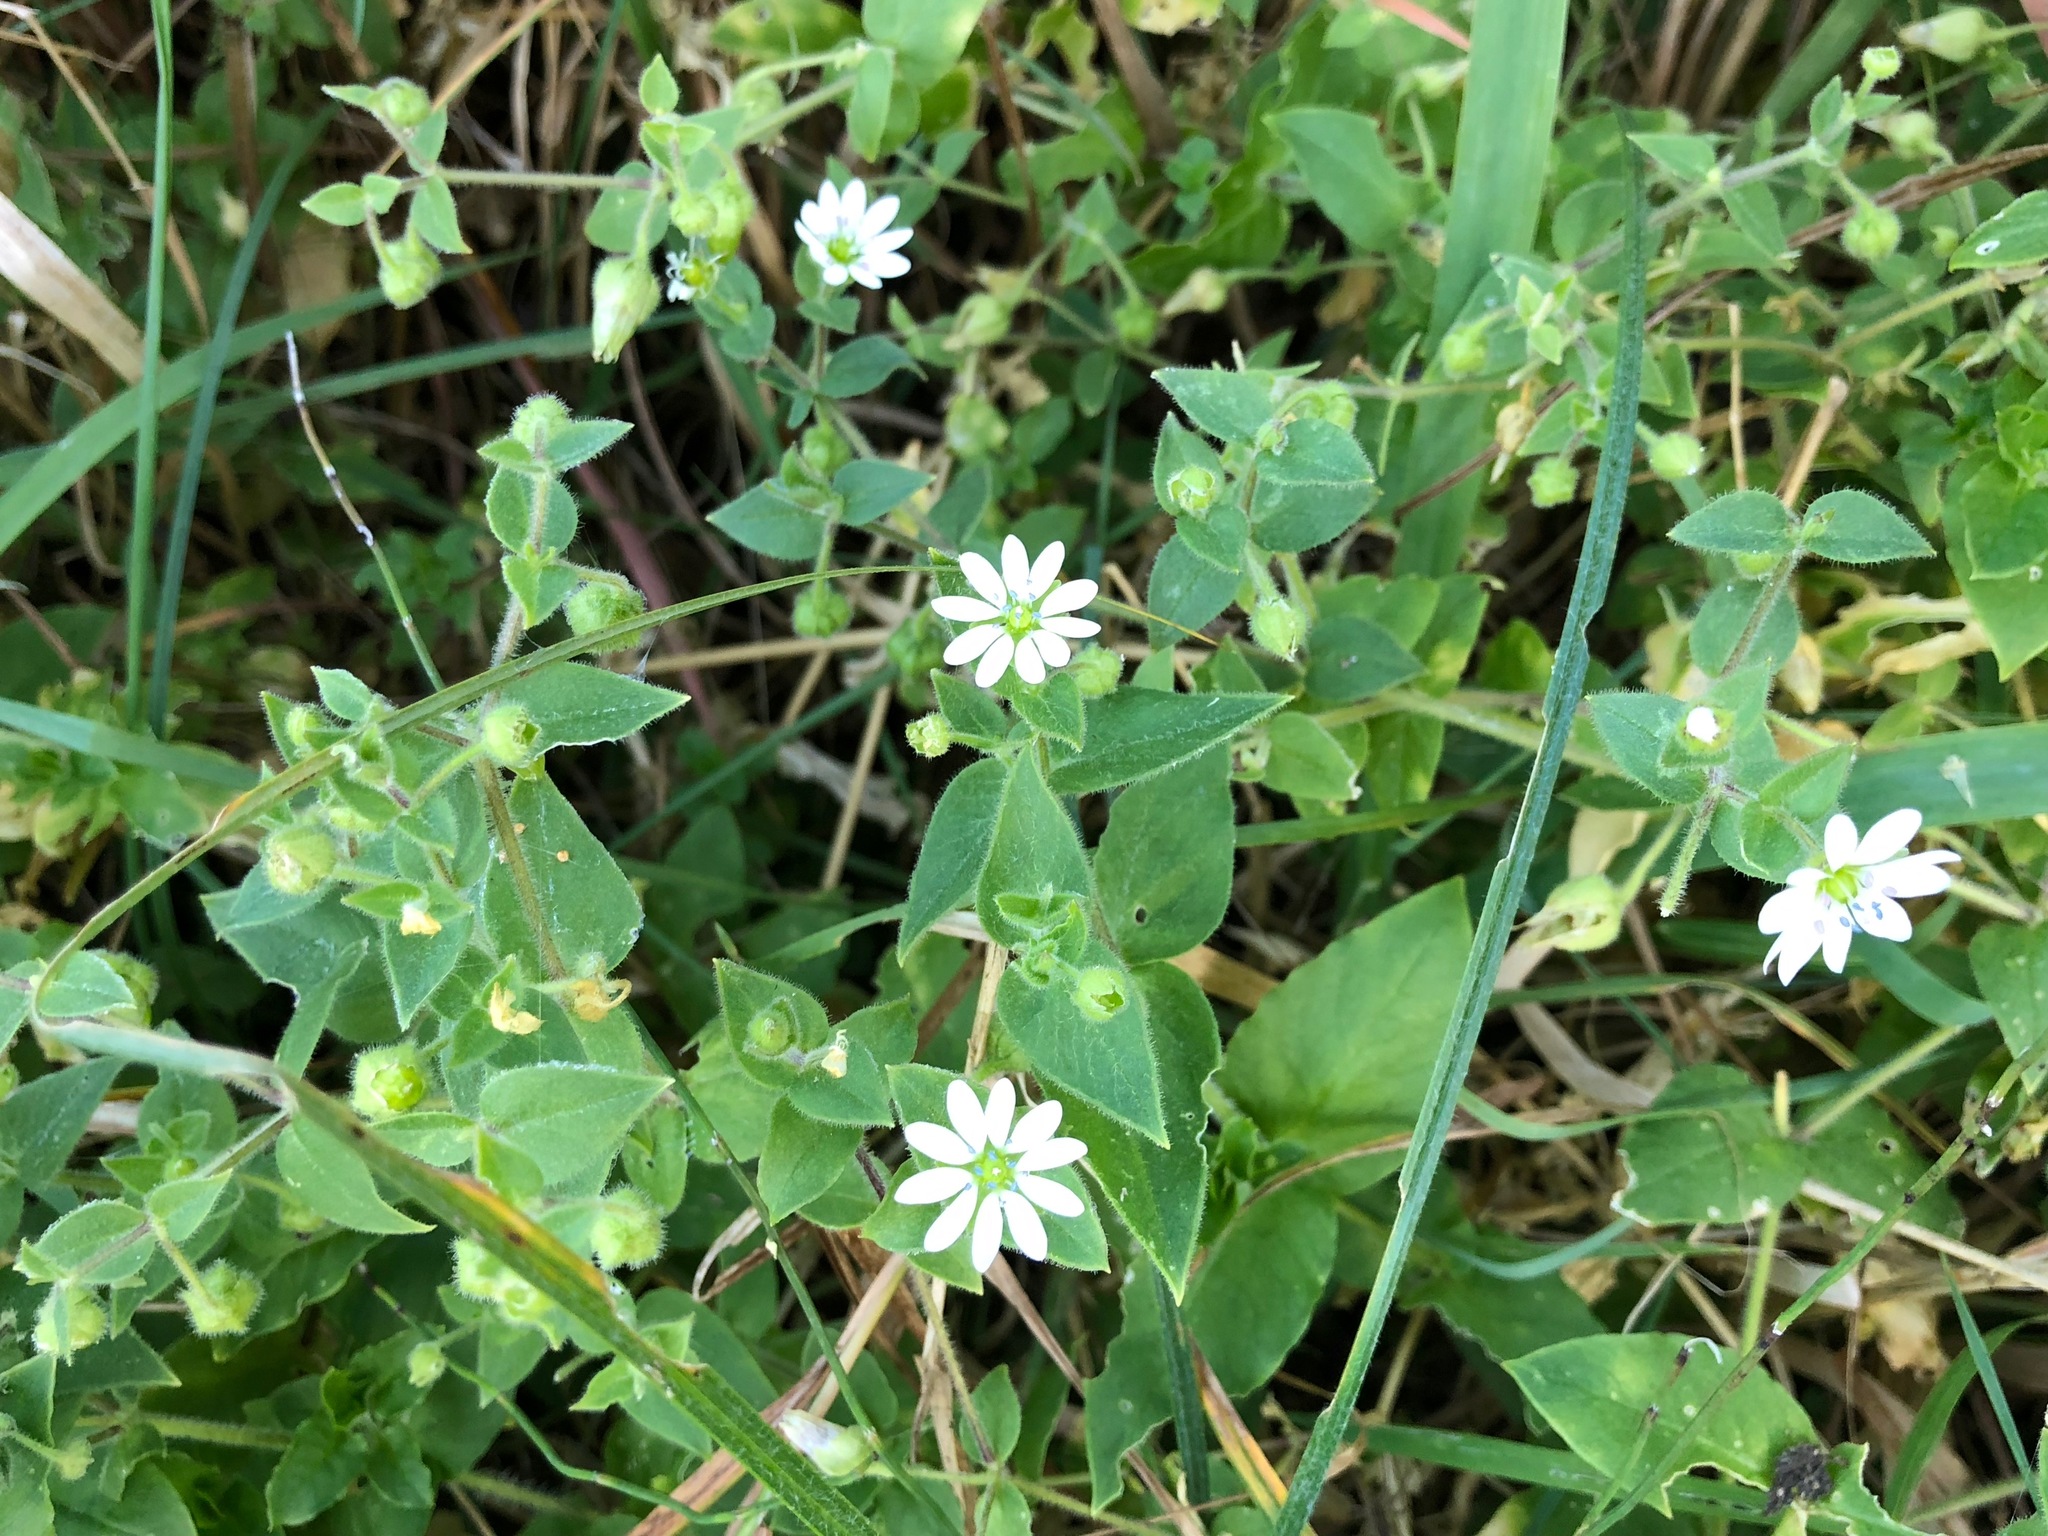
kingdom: Plantae
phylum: Tracheophyta
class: Magnoliopsida
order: Caryophyllales
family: Caryophyllaceae
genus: Stellaria
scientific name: Stellaria aquatica
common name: Water chickweed
